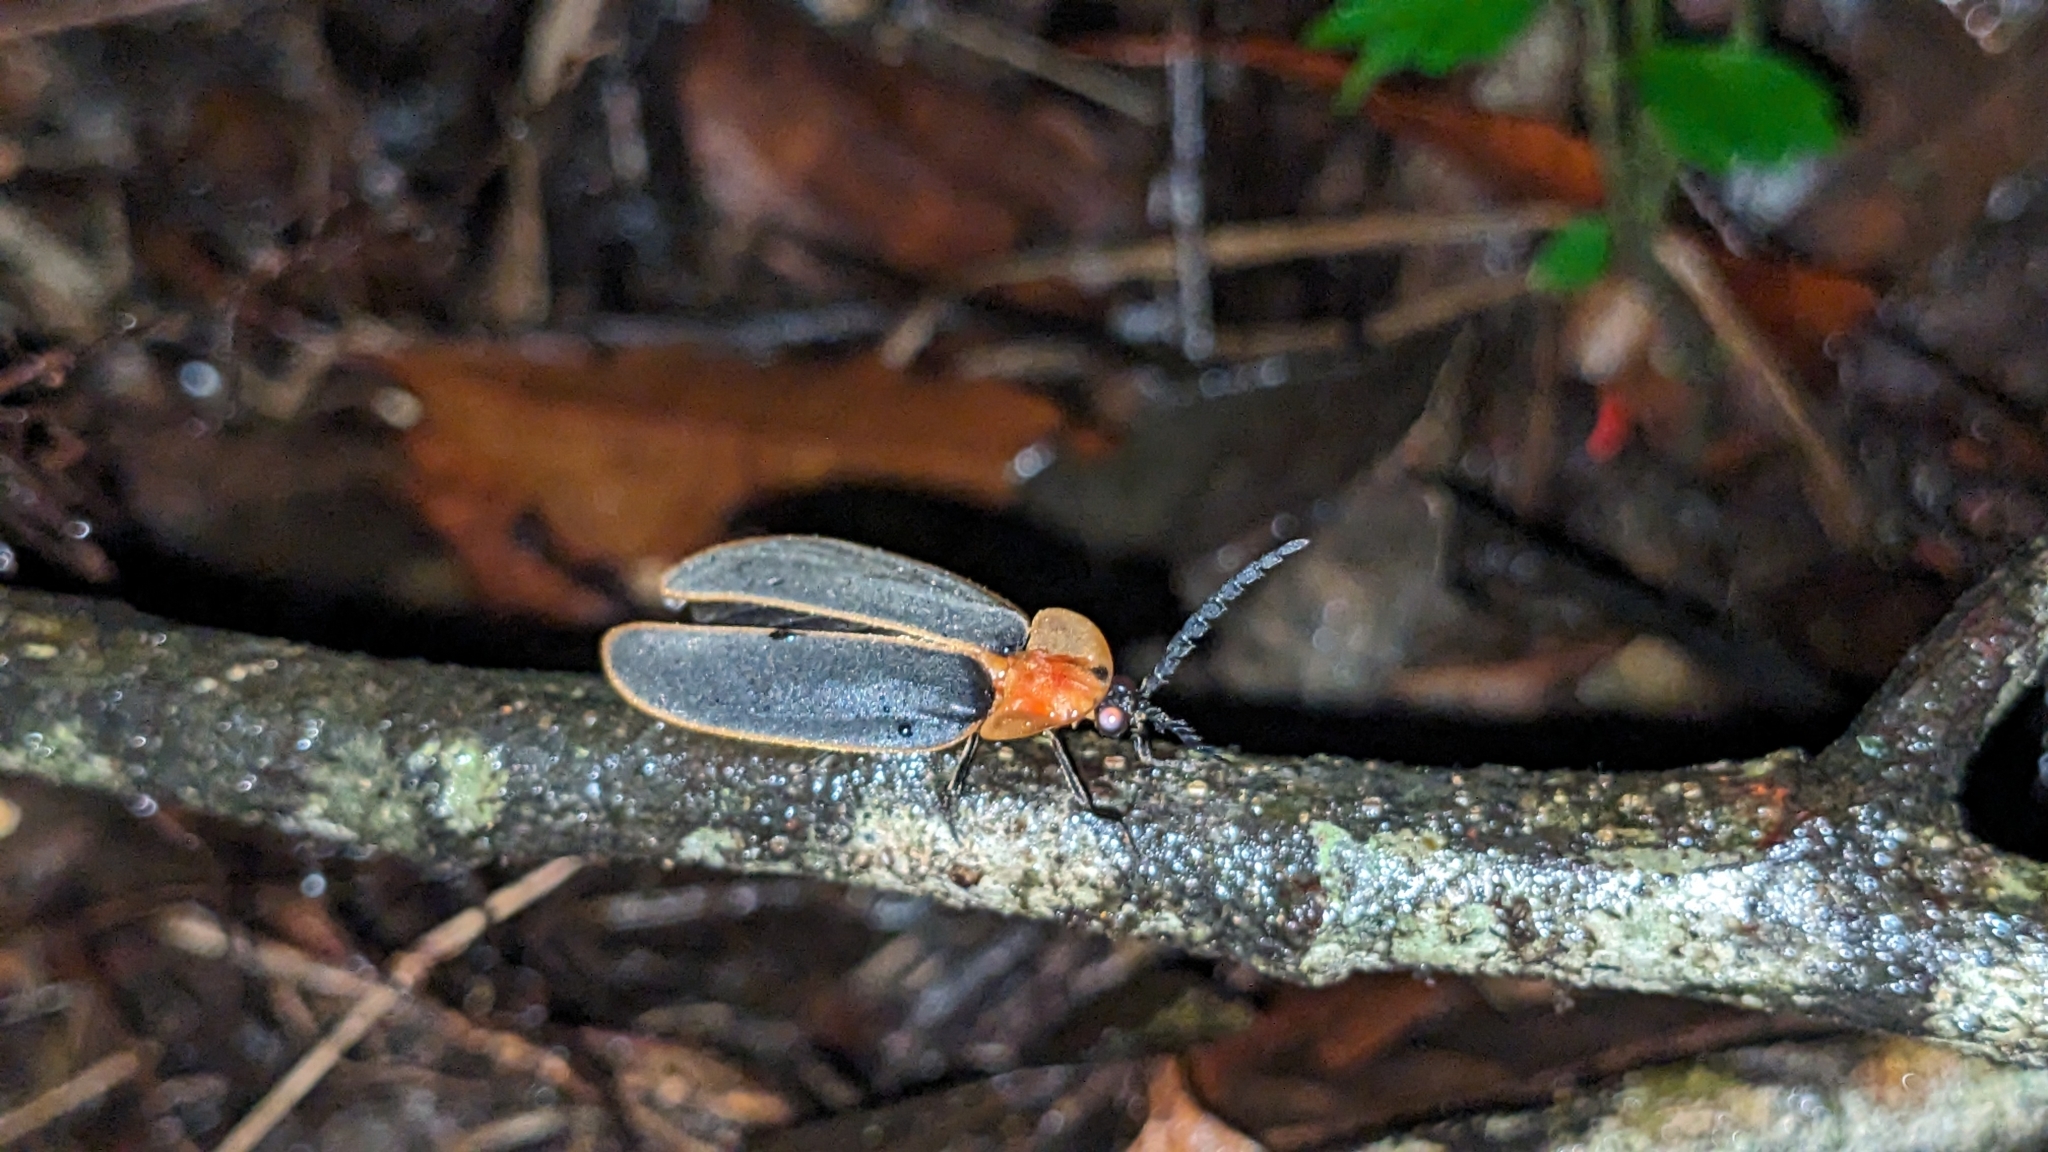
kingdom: Animalia
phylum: Arthropoda
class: Insecta
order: Coleoptera
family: Lampyridae
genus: Pyrocoelia
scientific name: Pyrocoelia praetexta
